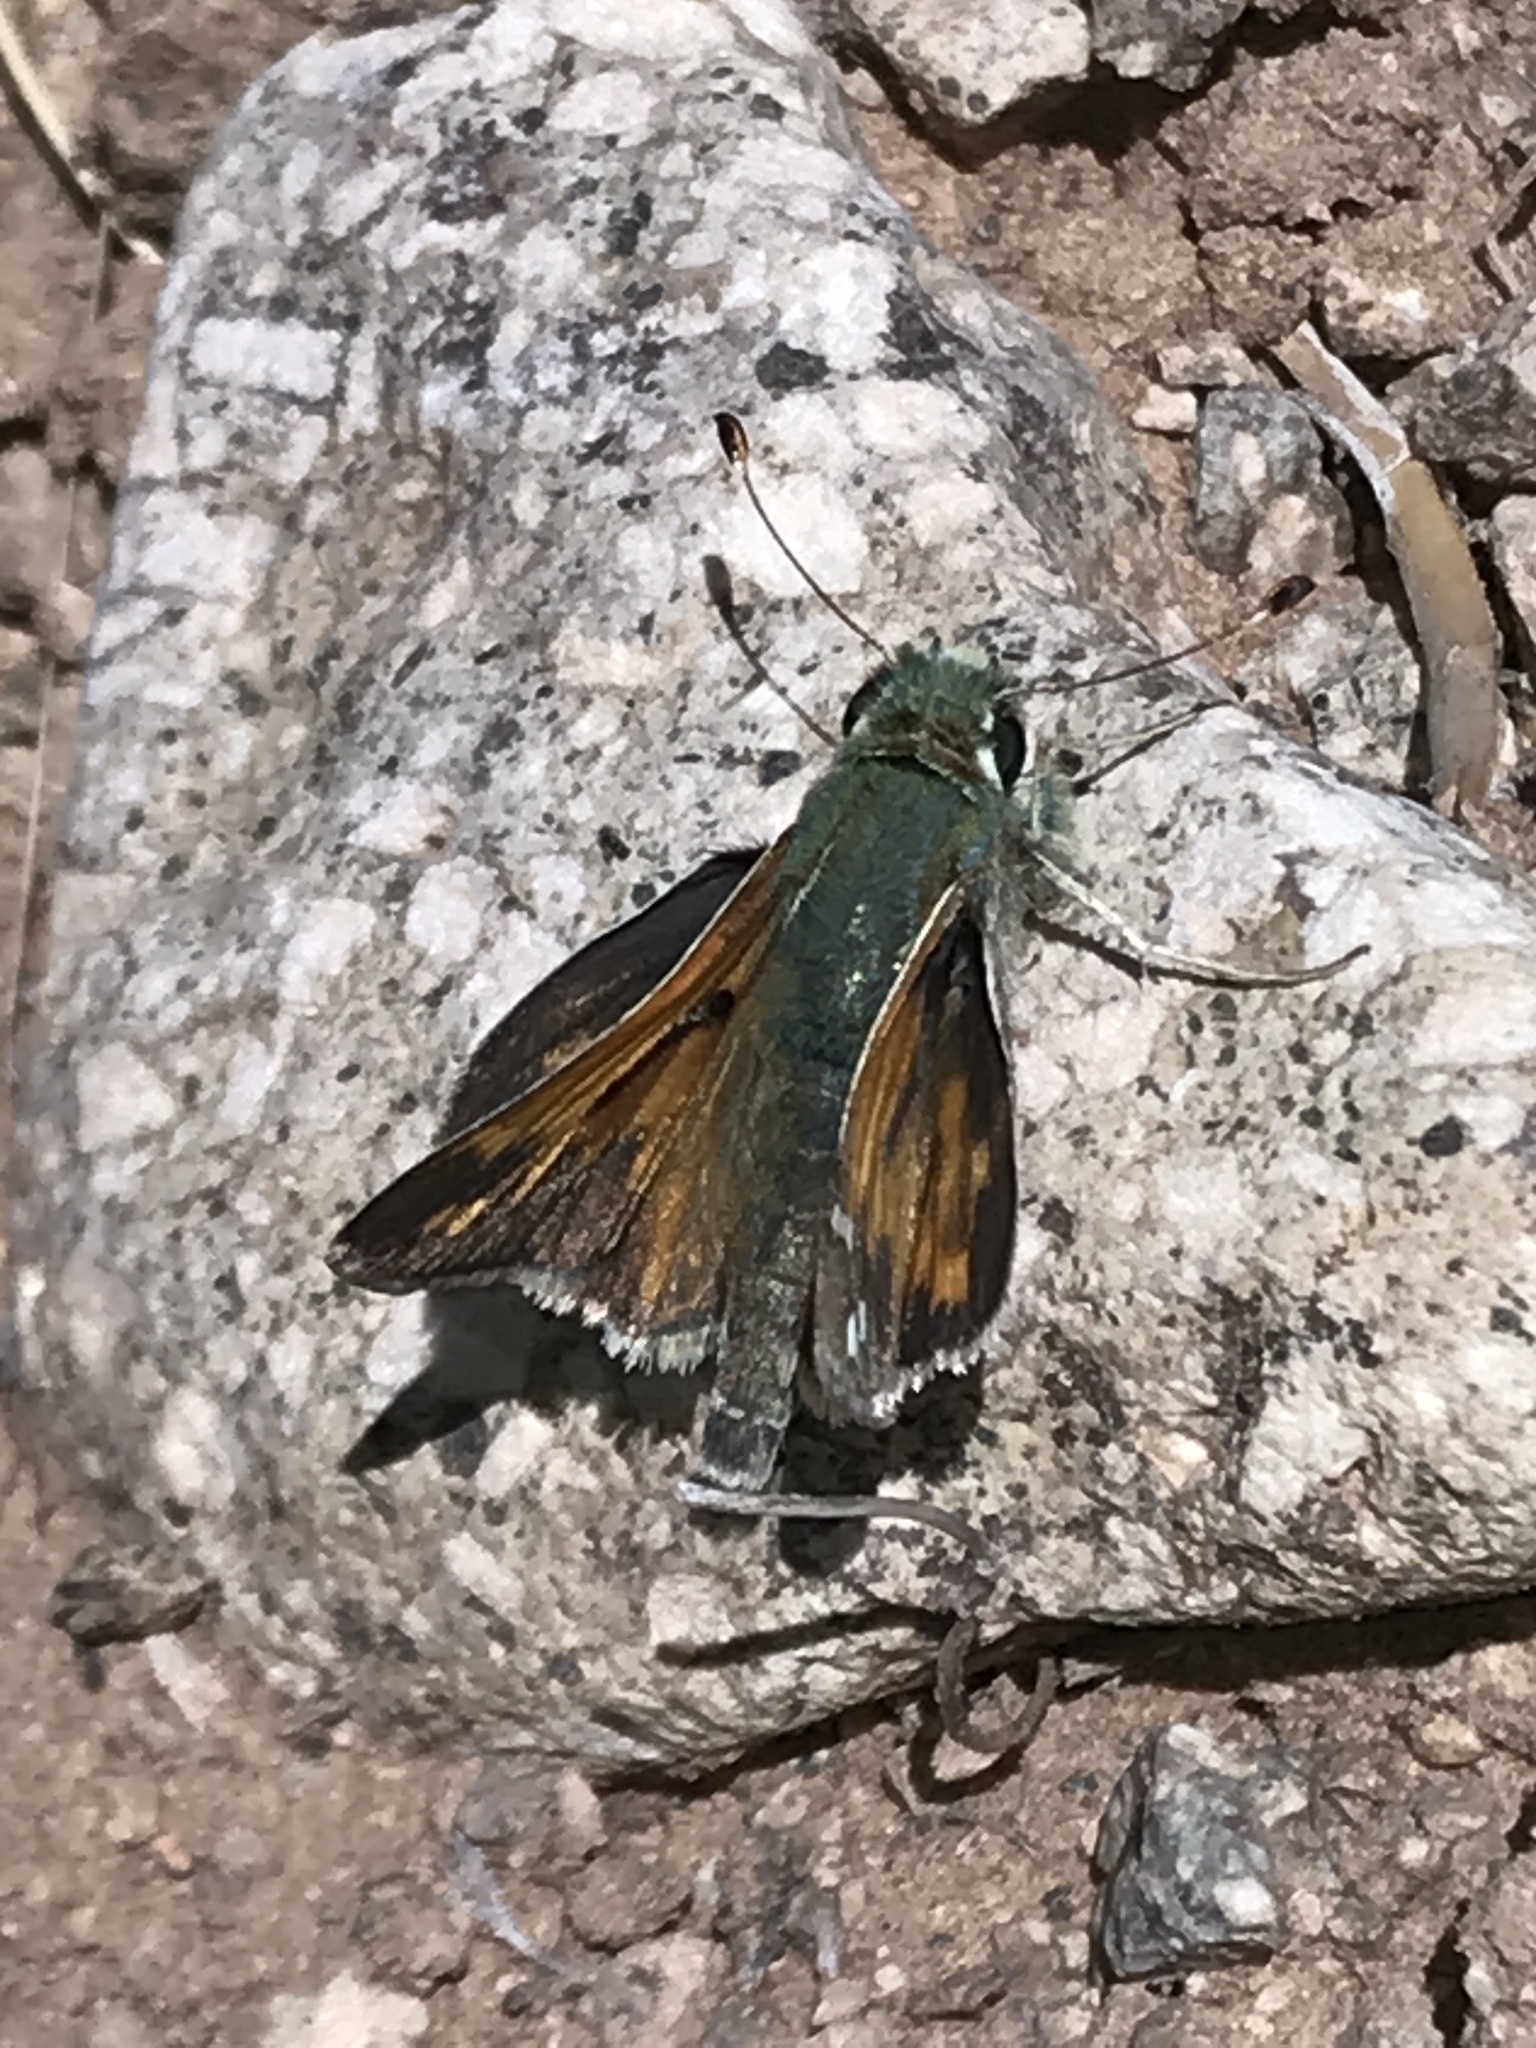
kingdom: Animalia
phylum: Arthropoda
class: Insecta
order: Lepidoptera
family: Hesperiidae
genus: Hesperia
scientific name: Hesperia juba
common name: Juba skipper
